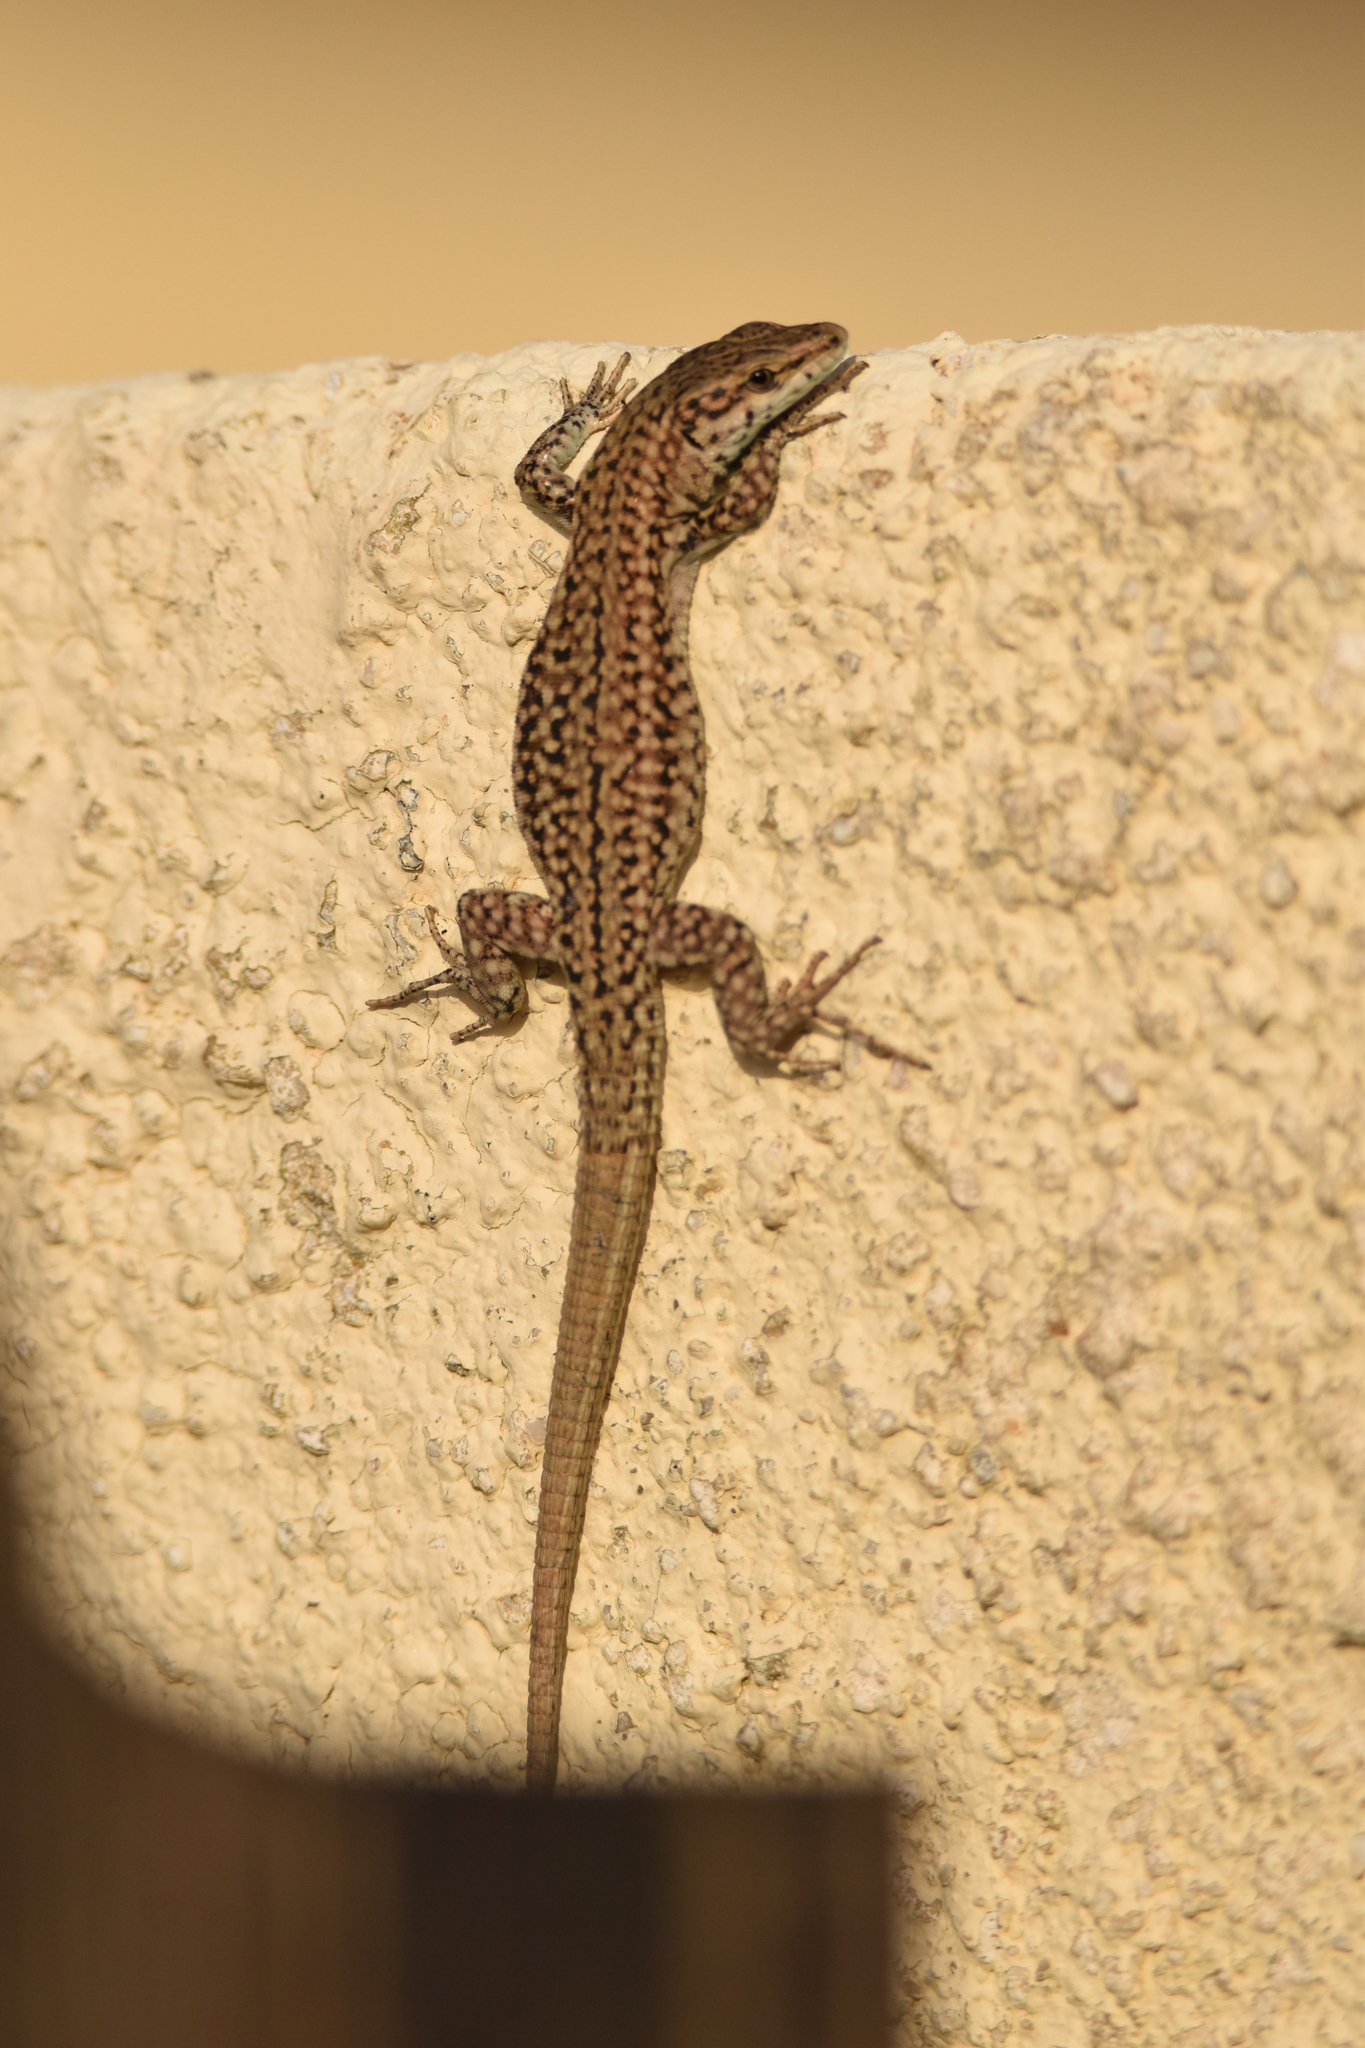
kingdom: Animalia
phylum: Chordata
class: Squamata
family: Lacertidae
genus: Podarcis
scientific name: Podarcis liolepis
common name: Catalonian wall lizard
